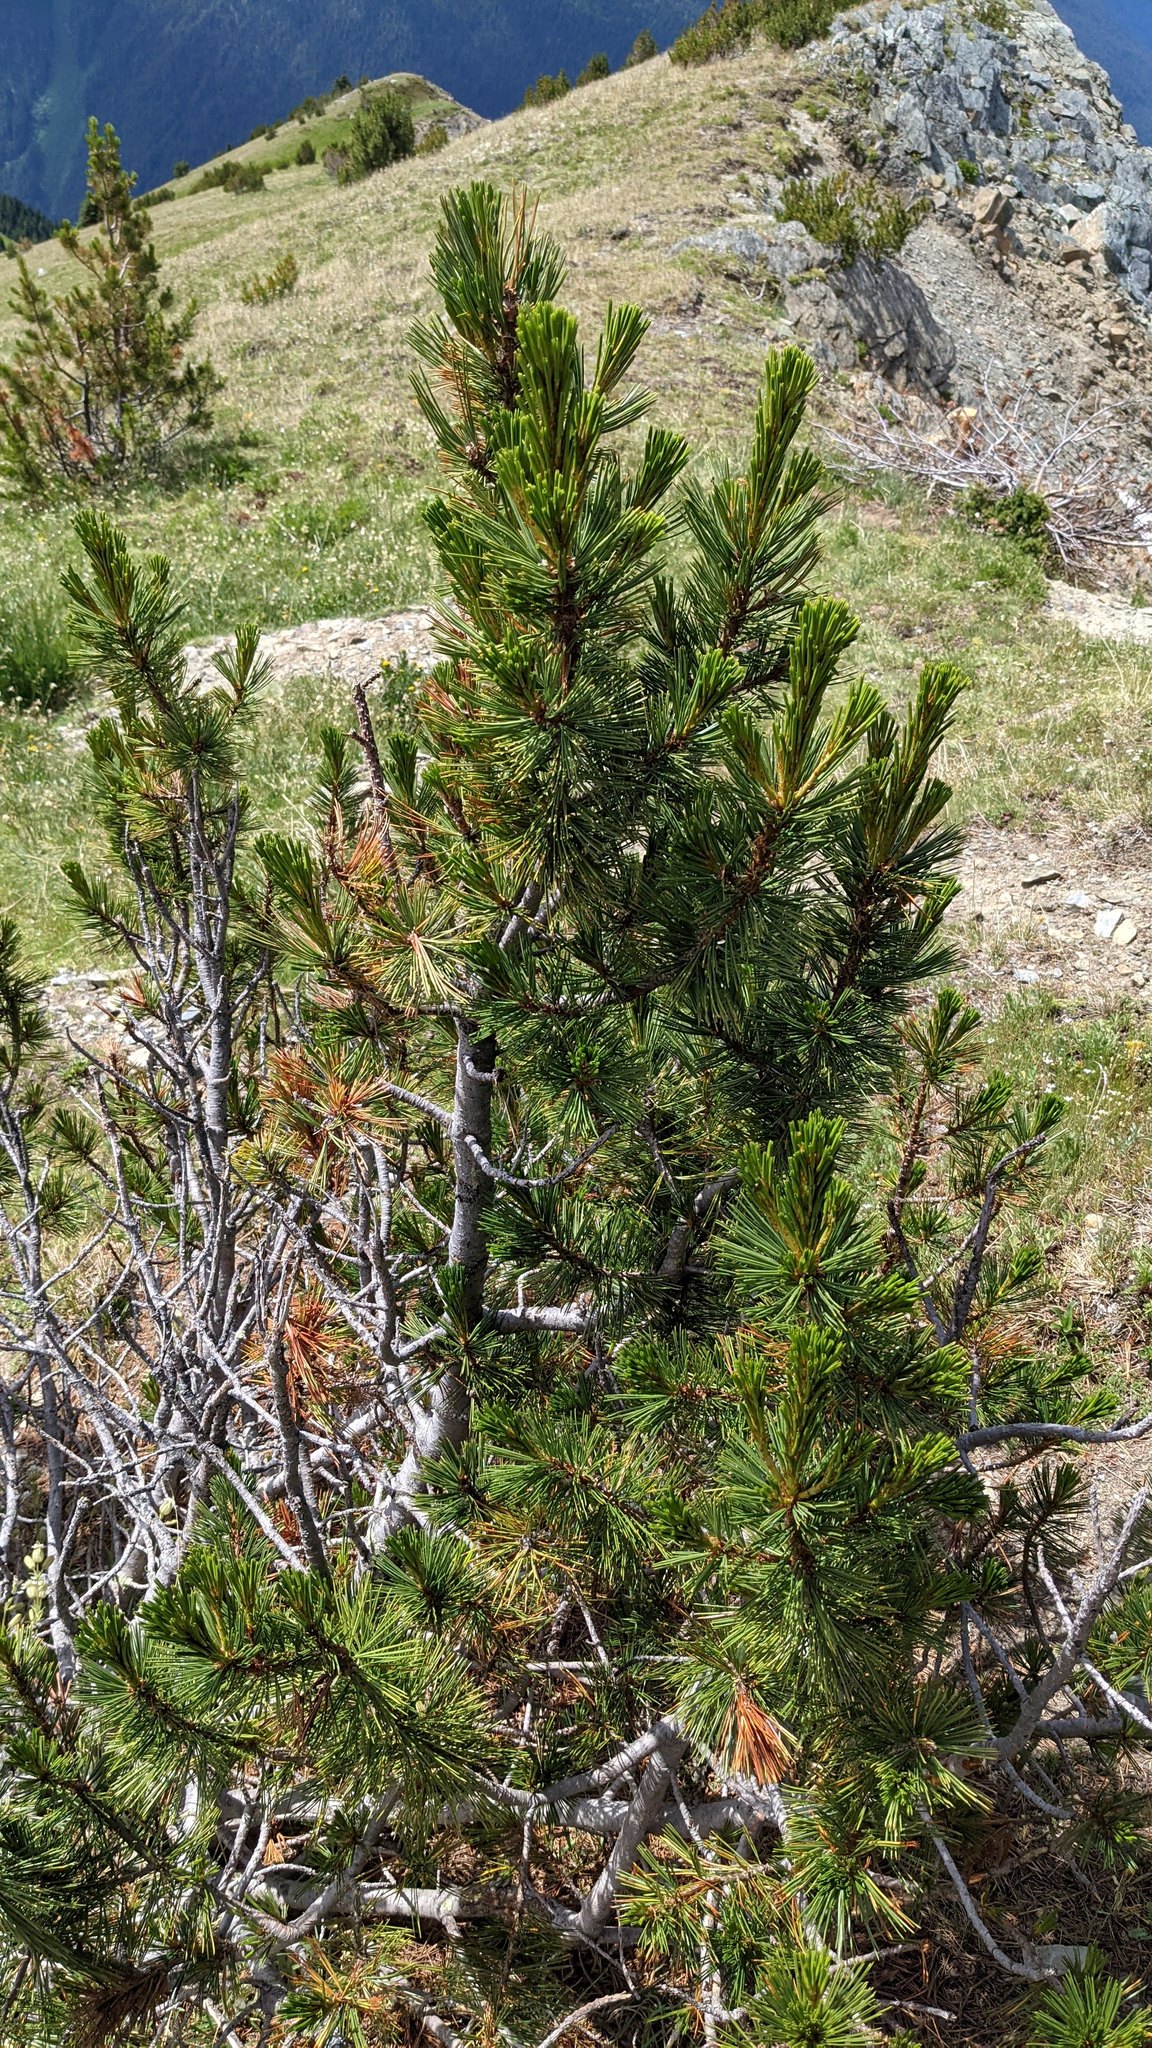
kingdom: Plantae
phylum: Tracheophyta
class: Pinopsida
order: Pinales
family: Pinaceae
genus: Pinus
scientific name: Pinus albicaulis
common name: Whitebark pine
